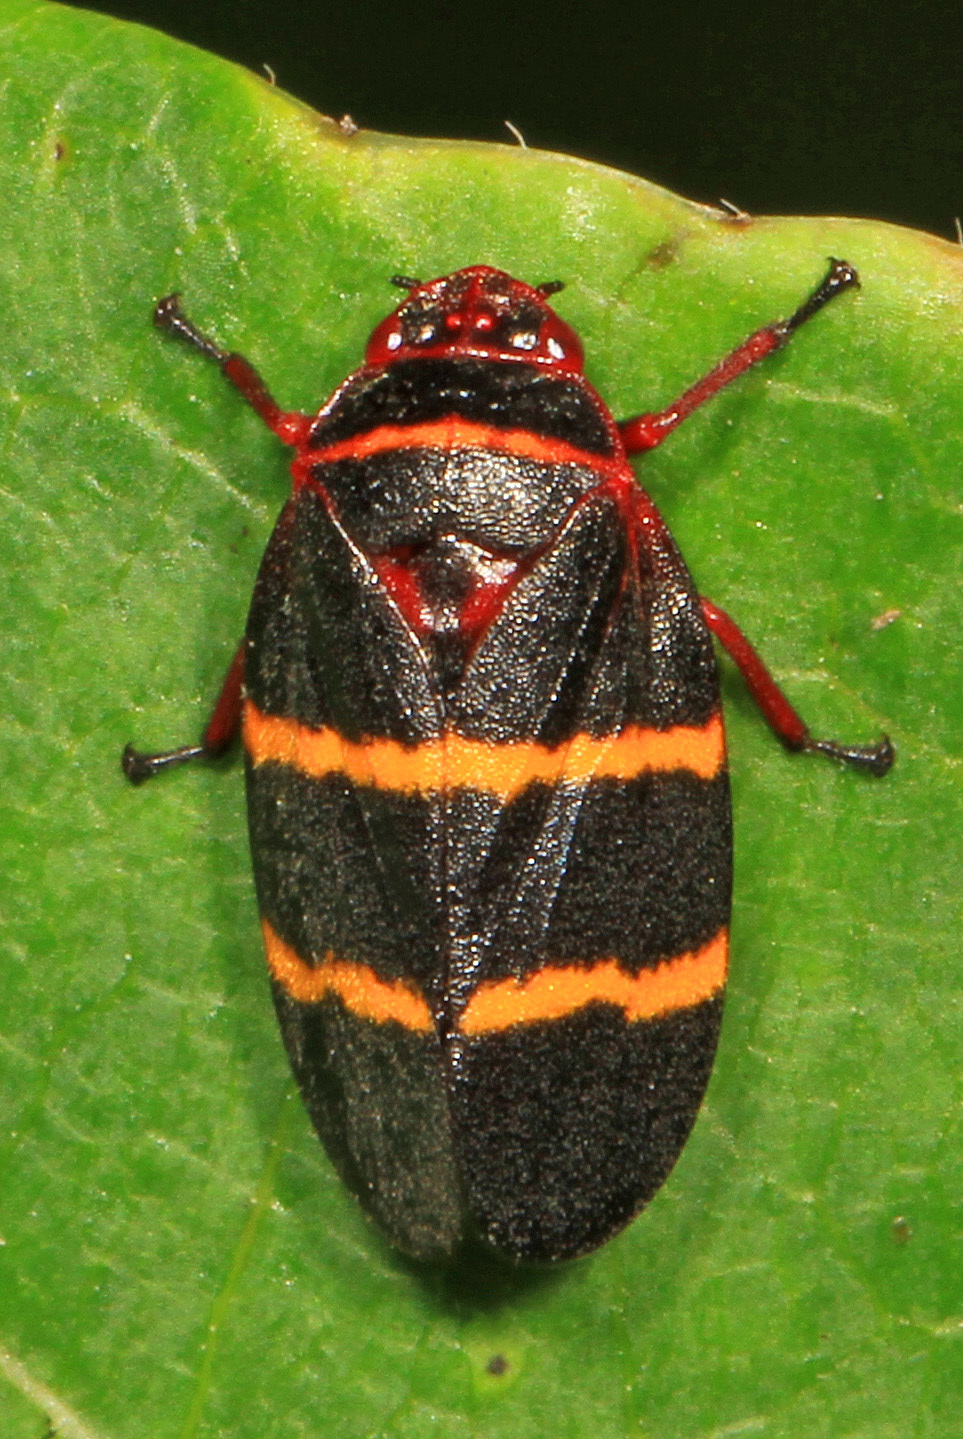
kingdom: Animalia
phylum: Arthropoda
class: Insecta
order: Hemiptera
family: Cercopidae
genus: Prosapia
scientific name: Prosapia bicincta
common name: Twolined spittlebug
